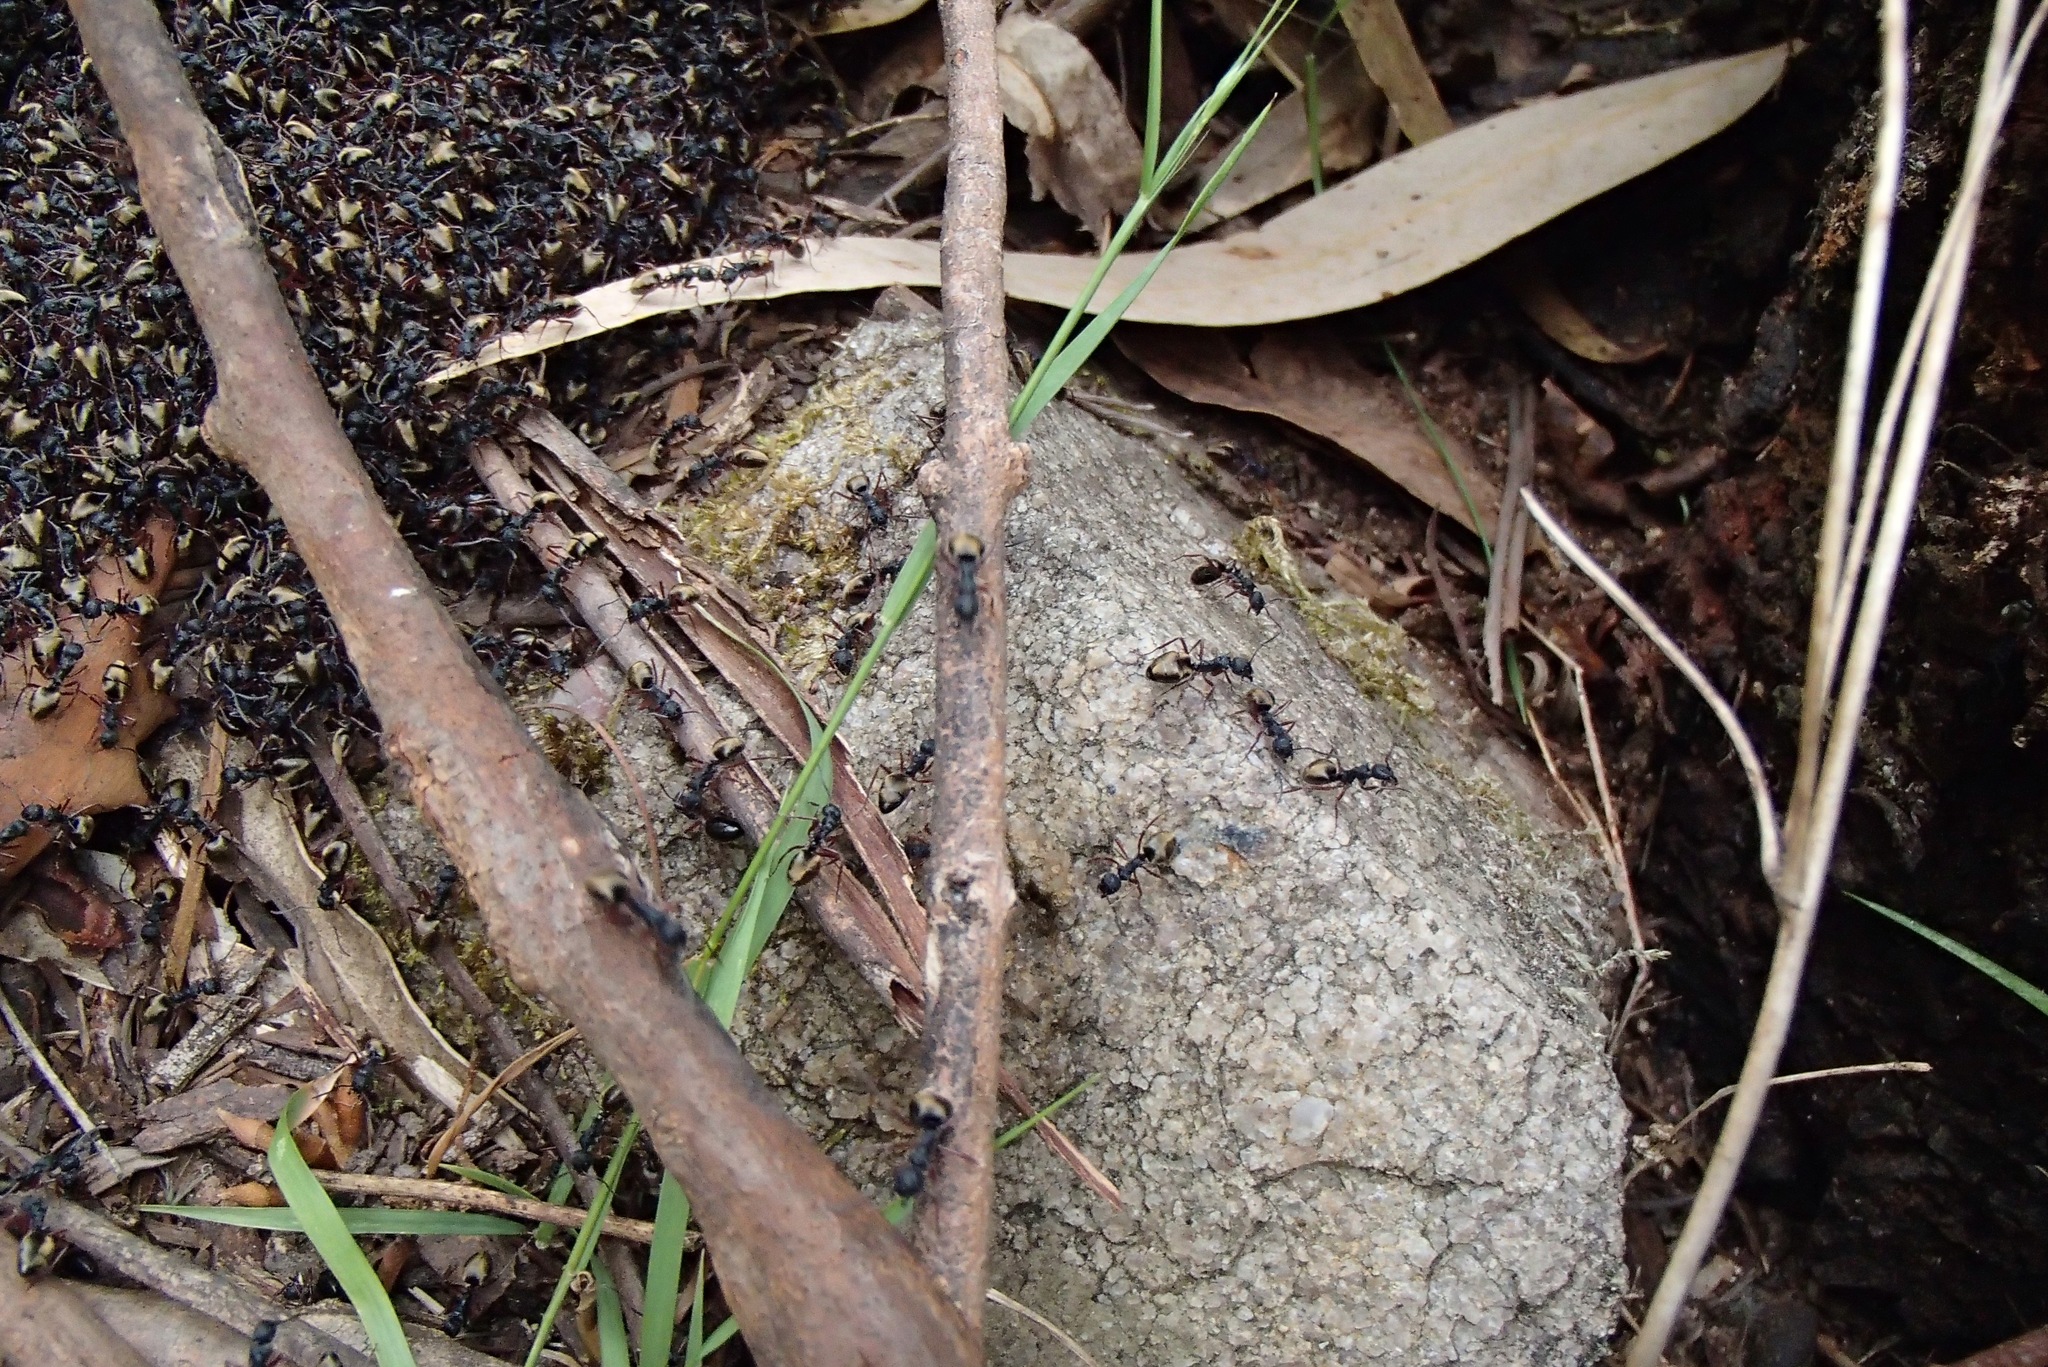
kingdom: Animalia
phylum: Arthropoda
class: Insecta
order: Hymenoptera
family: Formicidae
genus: Dolichoderus
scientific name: Dolichoderus doriae
